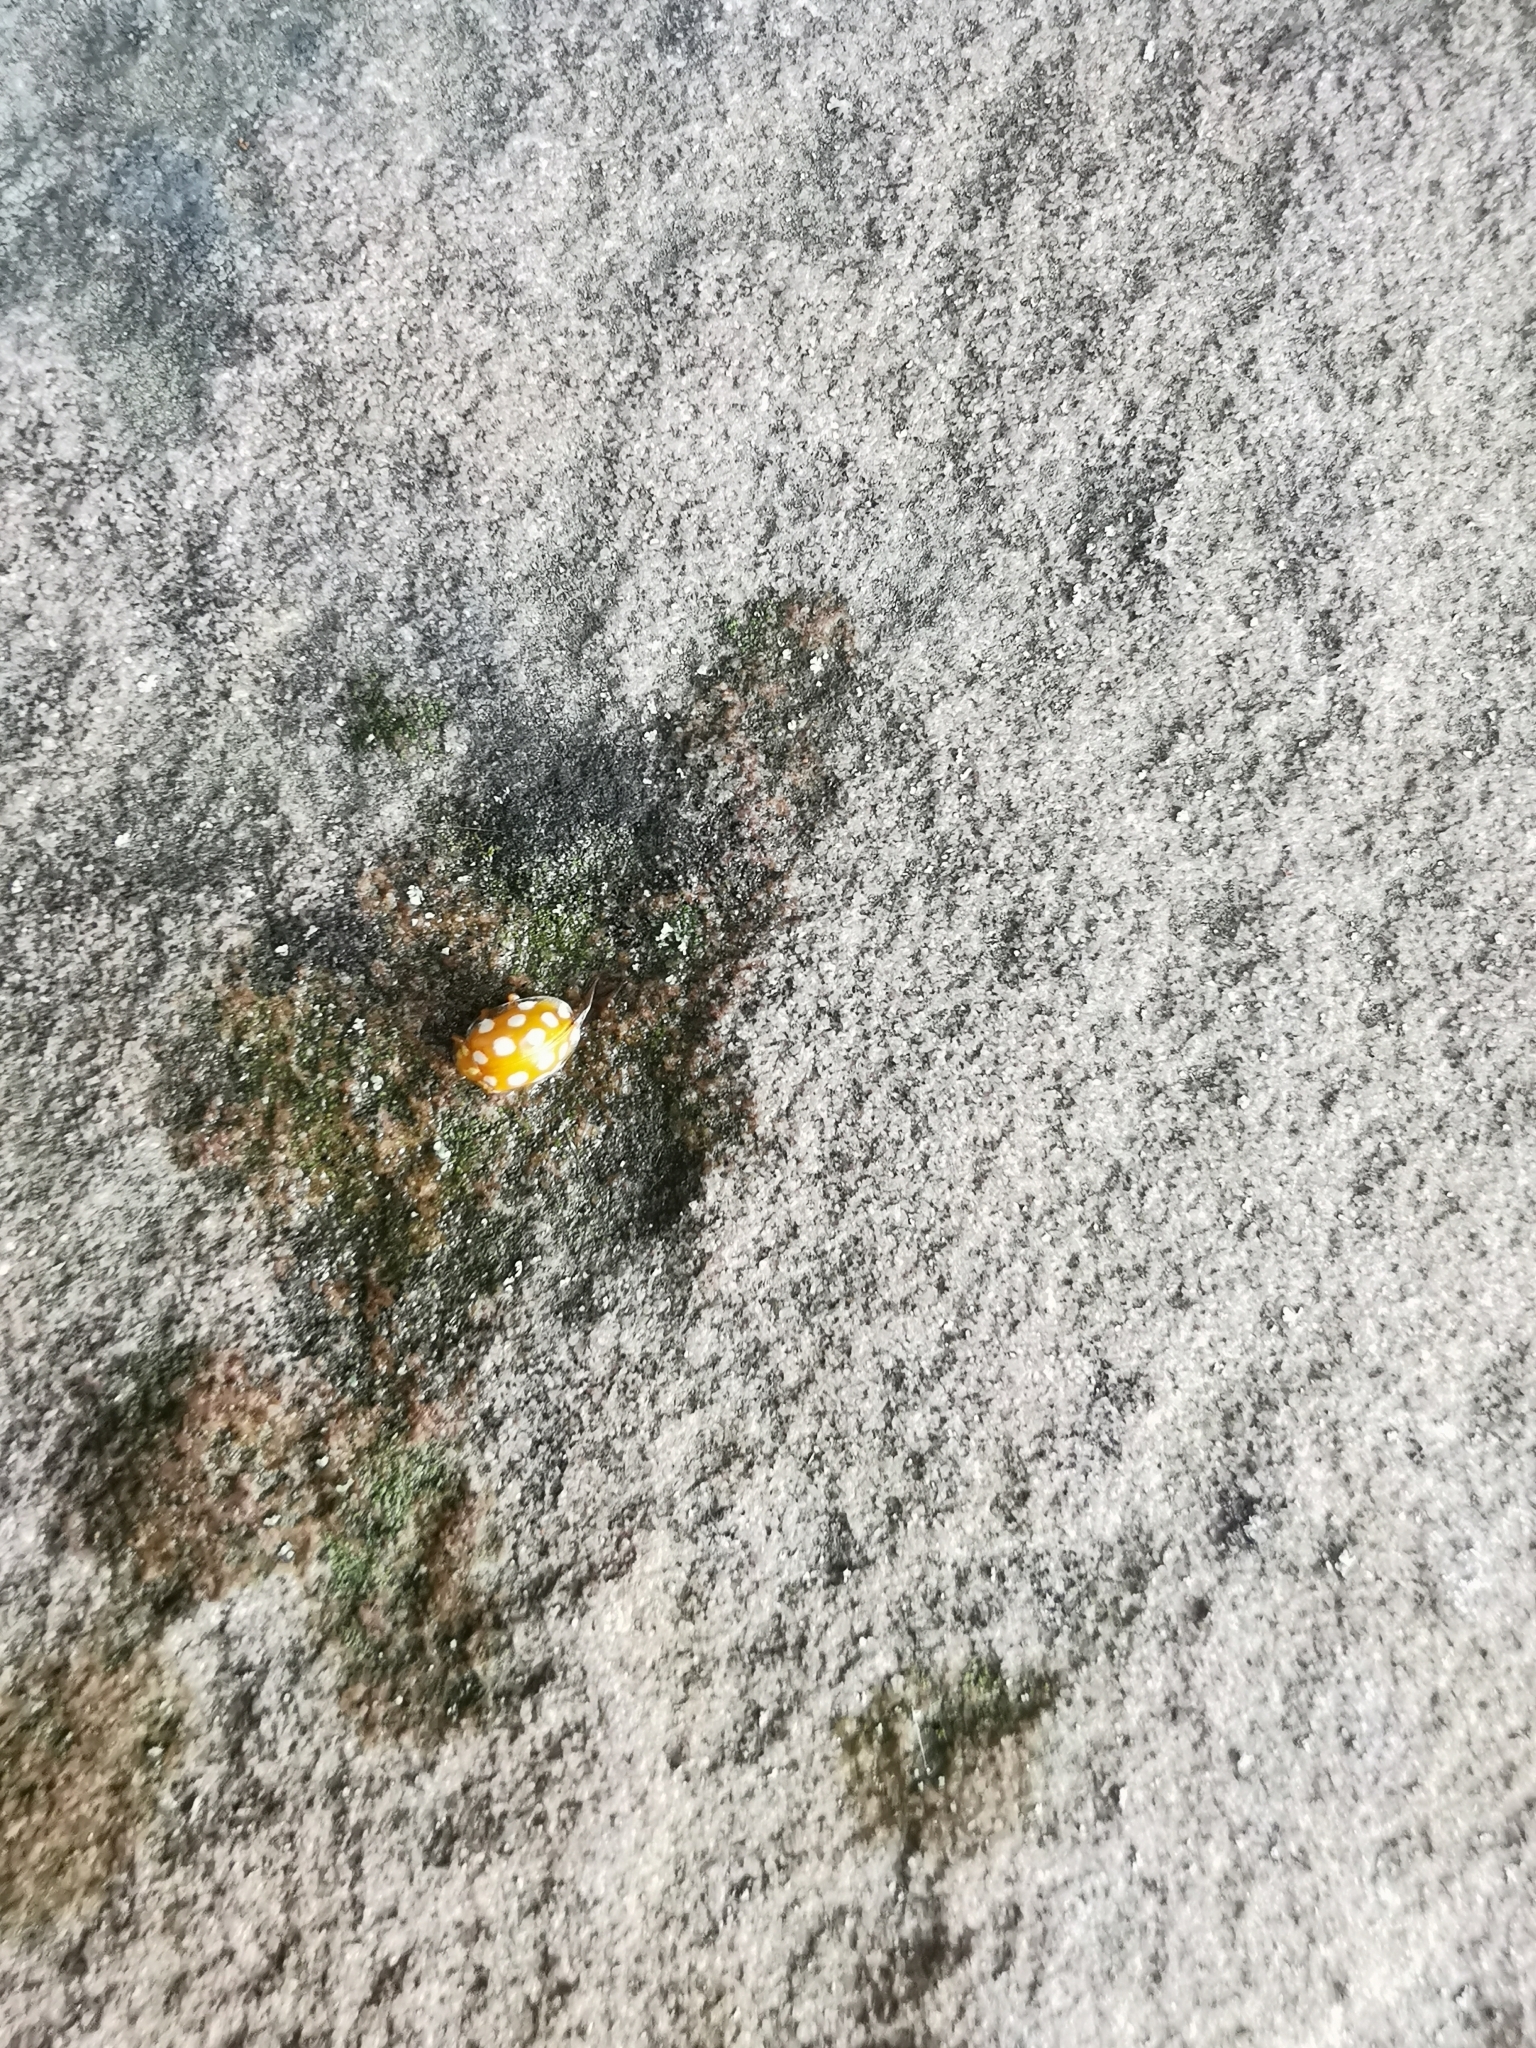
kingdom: Animalia
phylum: Arthropoda
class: Insecta
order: Coleoptera
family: Coccinellidae
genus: Halyzia
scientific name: Halyzia sedecimguttata
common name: Orange ladybird
